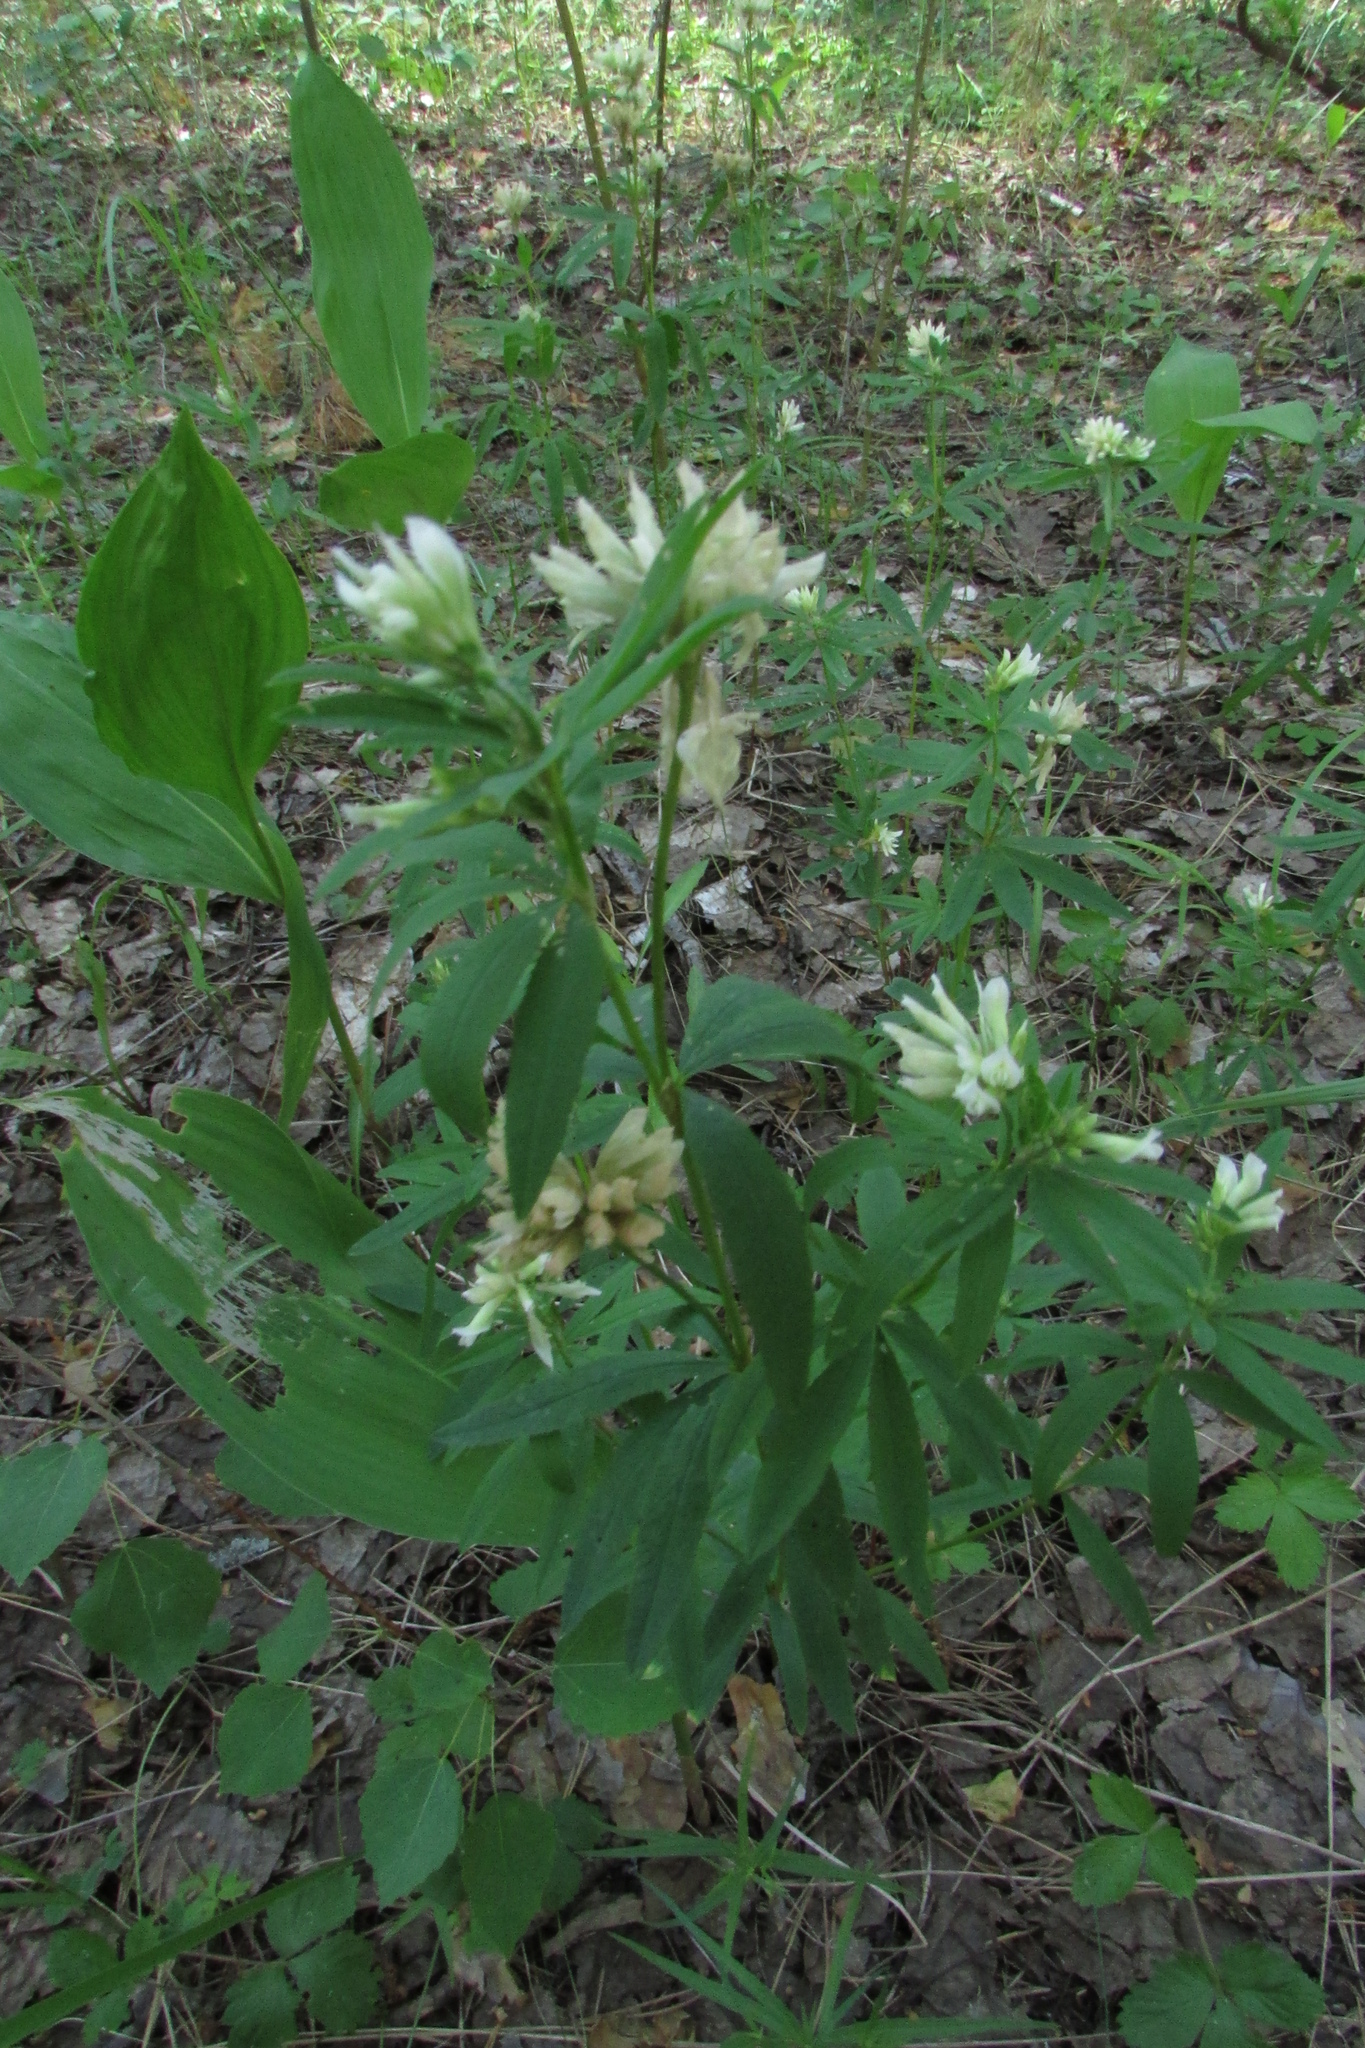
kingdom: Plantae
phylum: Tracheophyta
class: Magnoliopsida
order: Fabales
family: Fabaceae
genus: Trifolium
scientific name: Trifolium lupinaster
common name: Lupine clover
